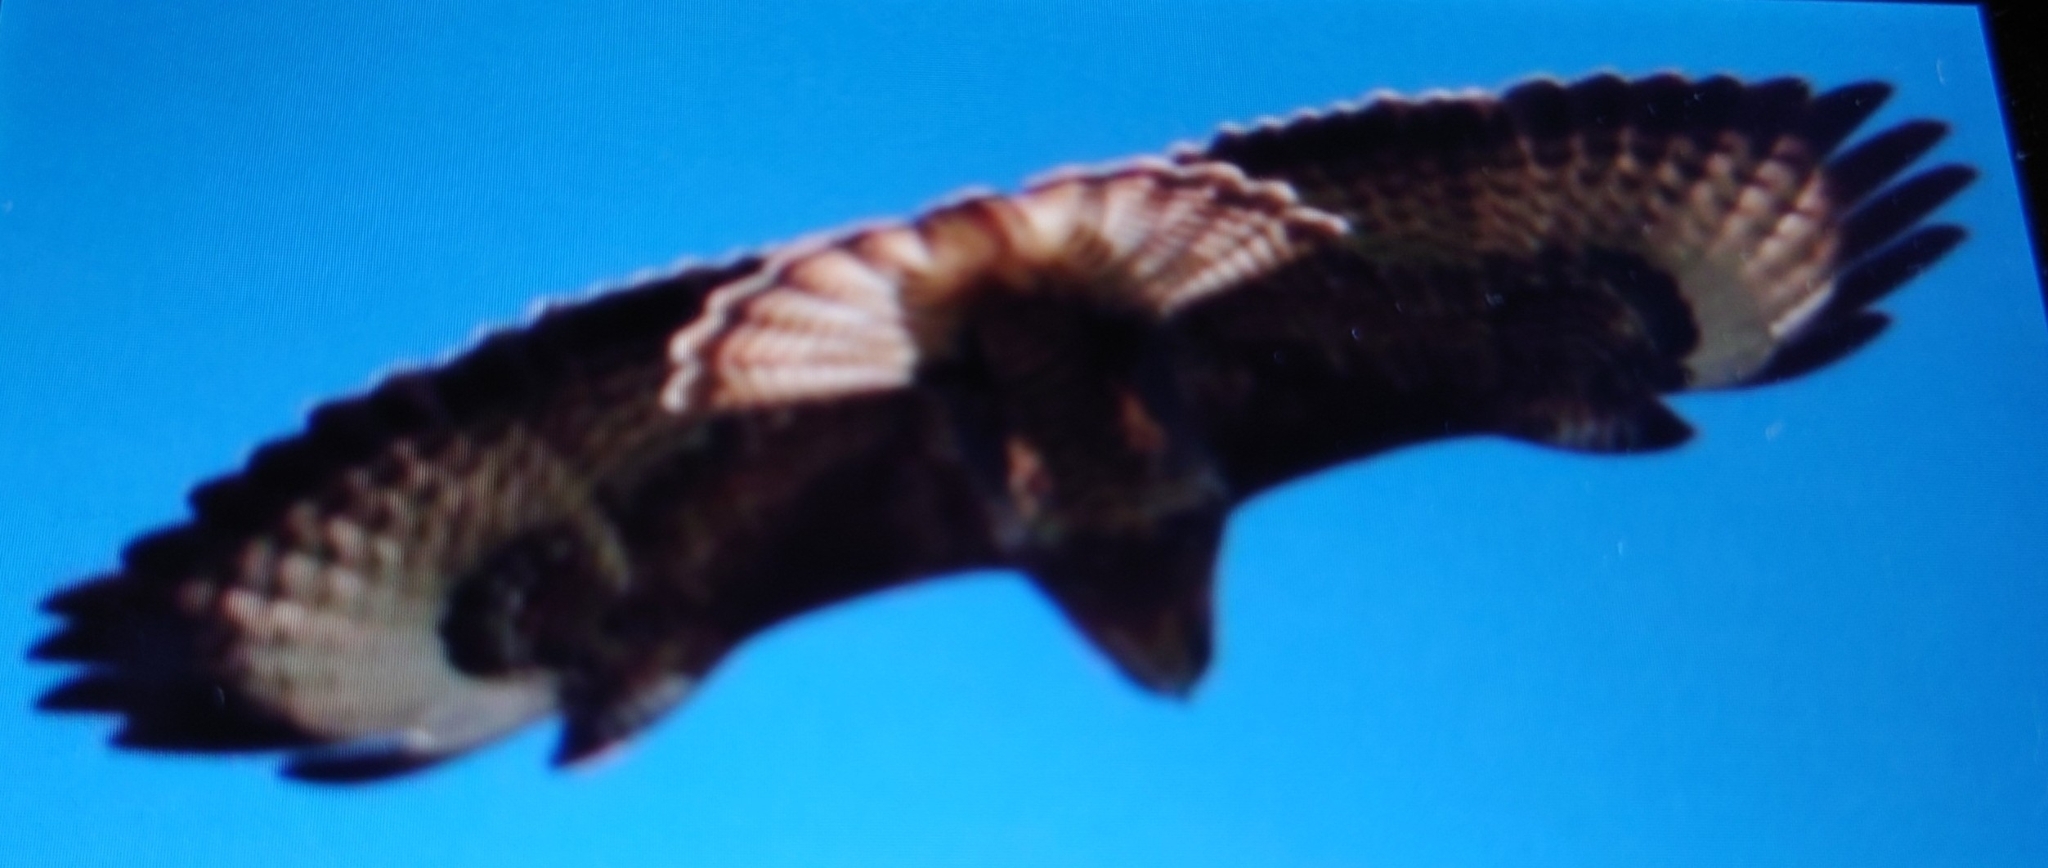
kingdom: Animalia
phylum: Chordata
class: Aves
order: Accipitriformes
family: Accipitridae
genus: Buteo
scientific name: Buteo buteo
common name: Common buzzard
